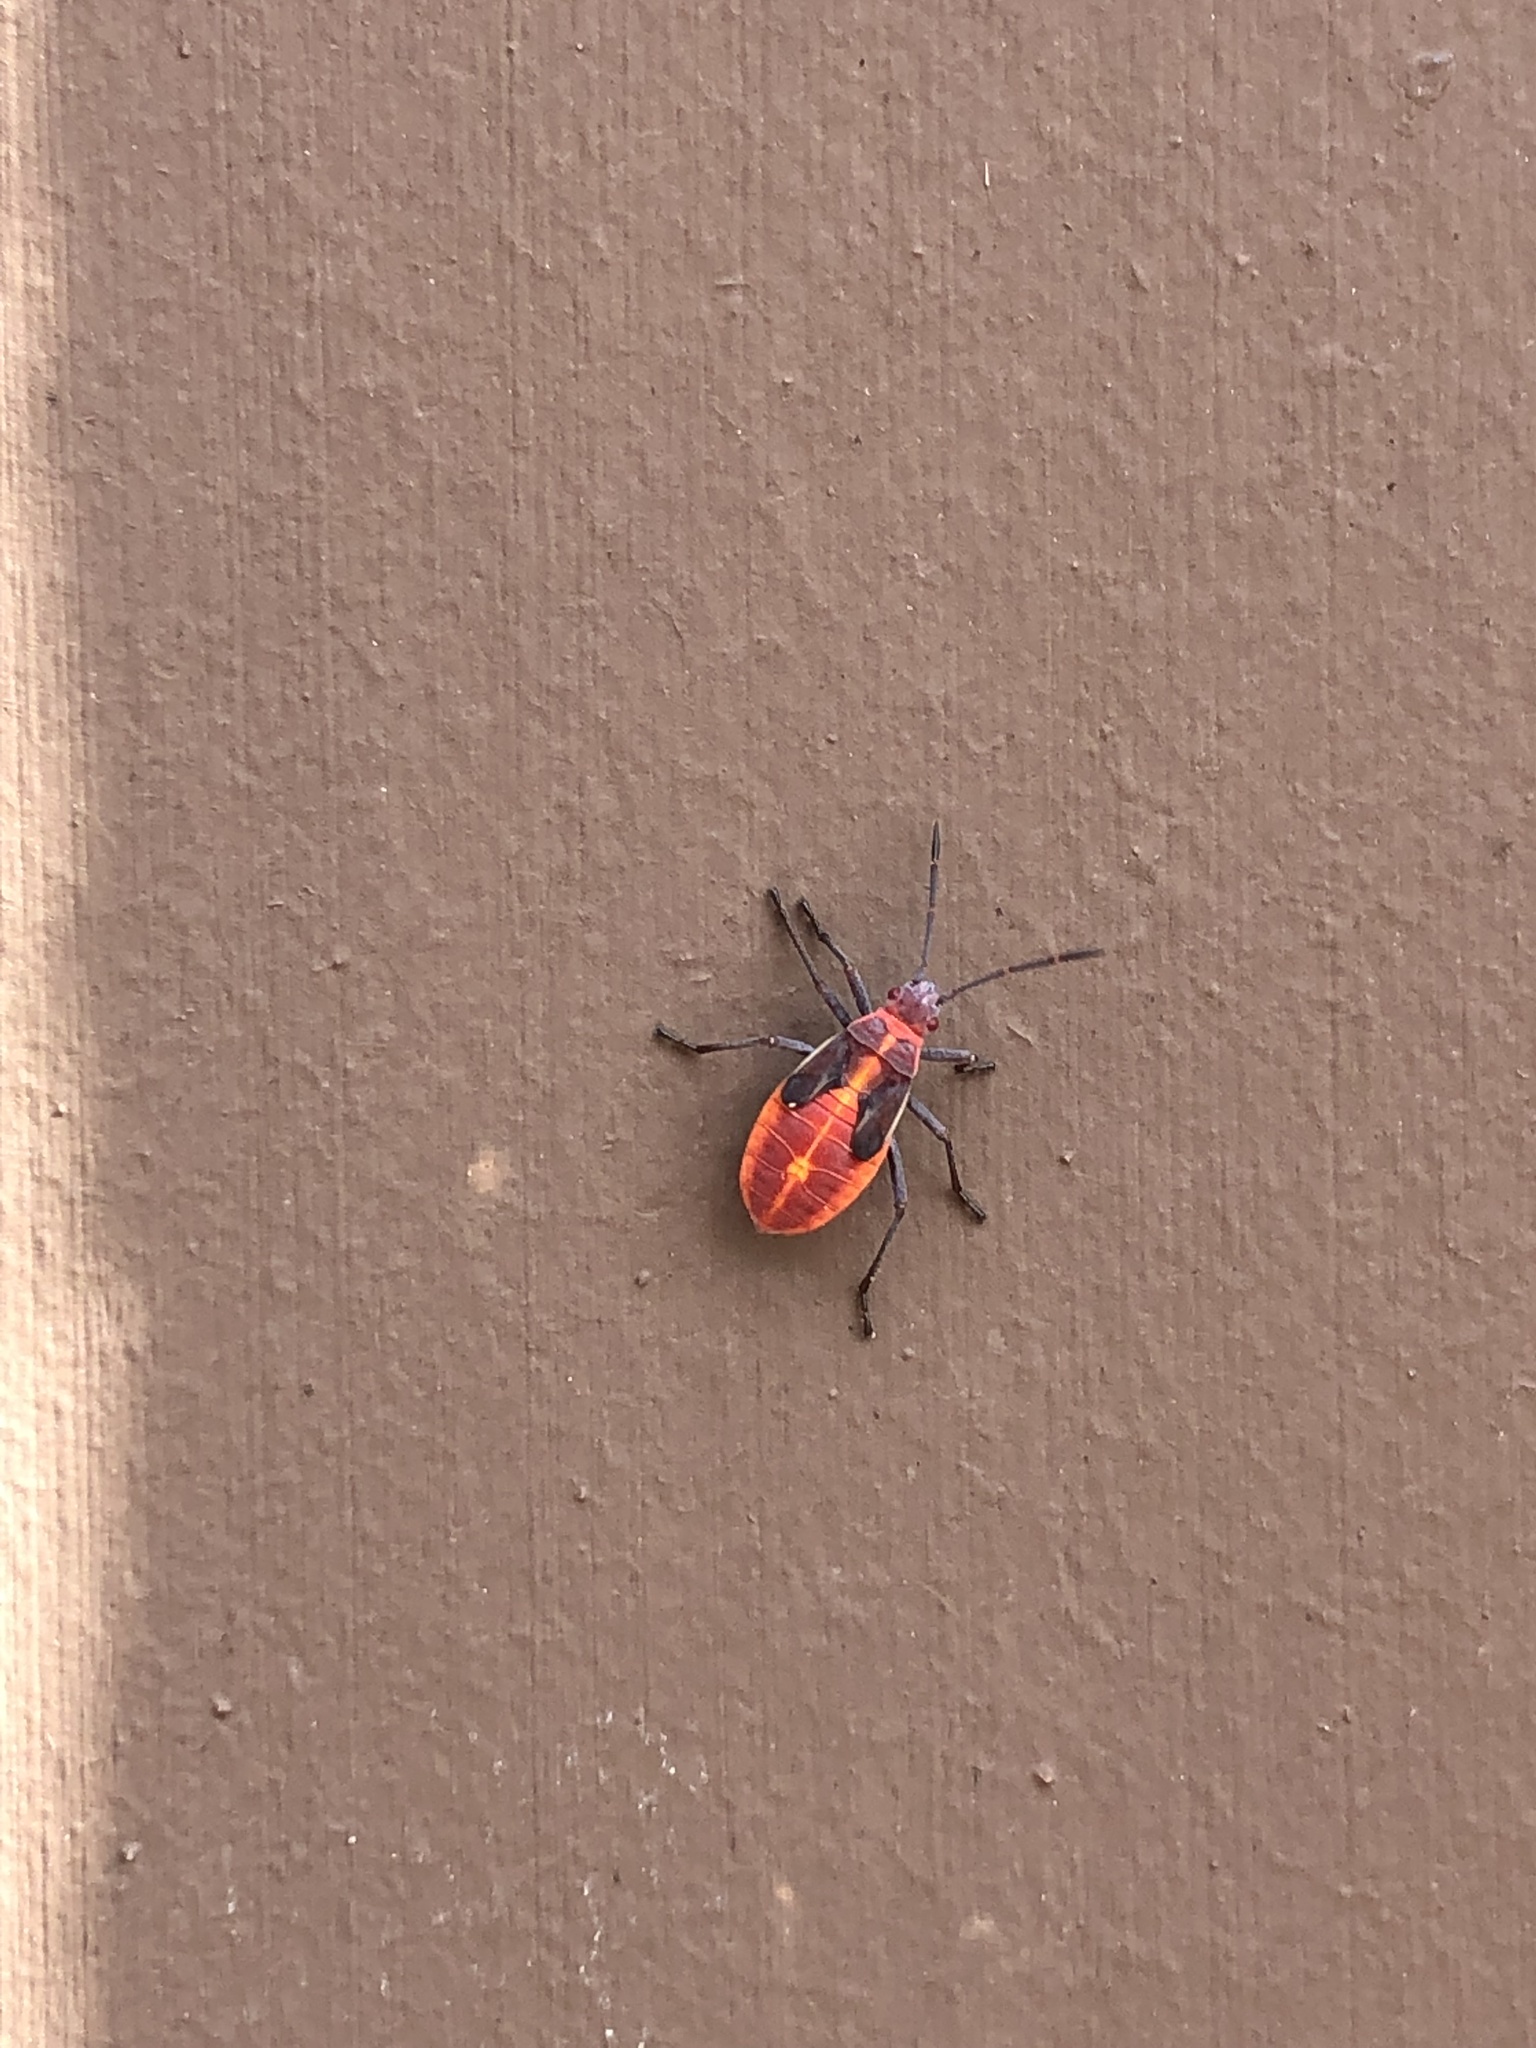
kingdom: Animalia
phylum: Arthropoda
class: Insecta
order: Hemiptera
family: Rhopalidae
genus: Boisea
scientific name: Boisea trivittata
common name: Boxelder bug
